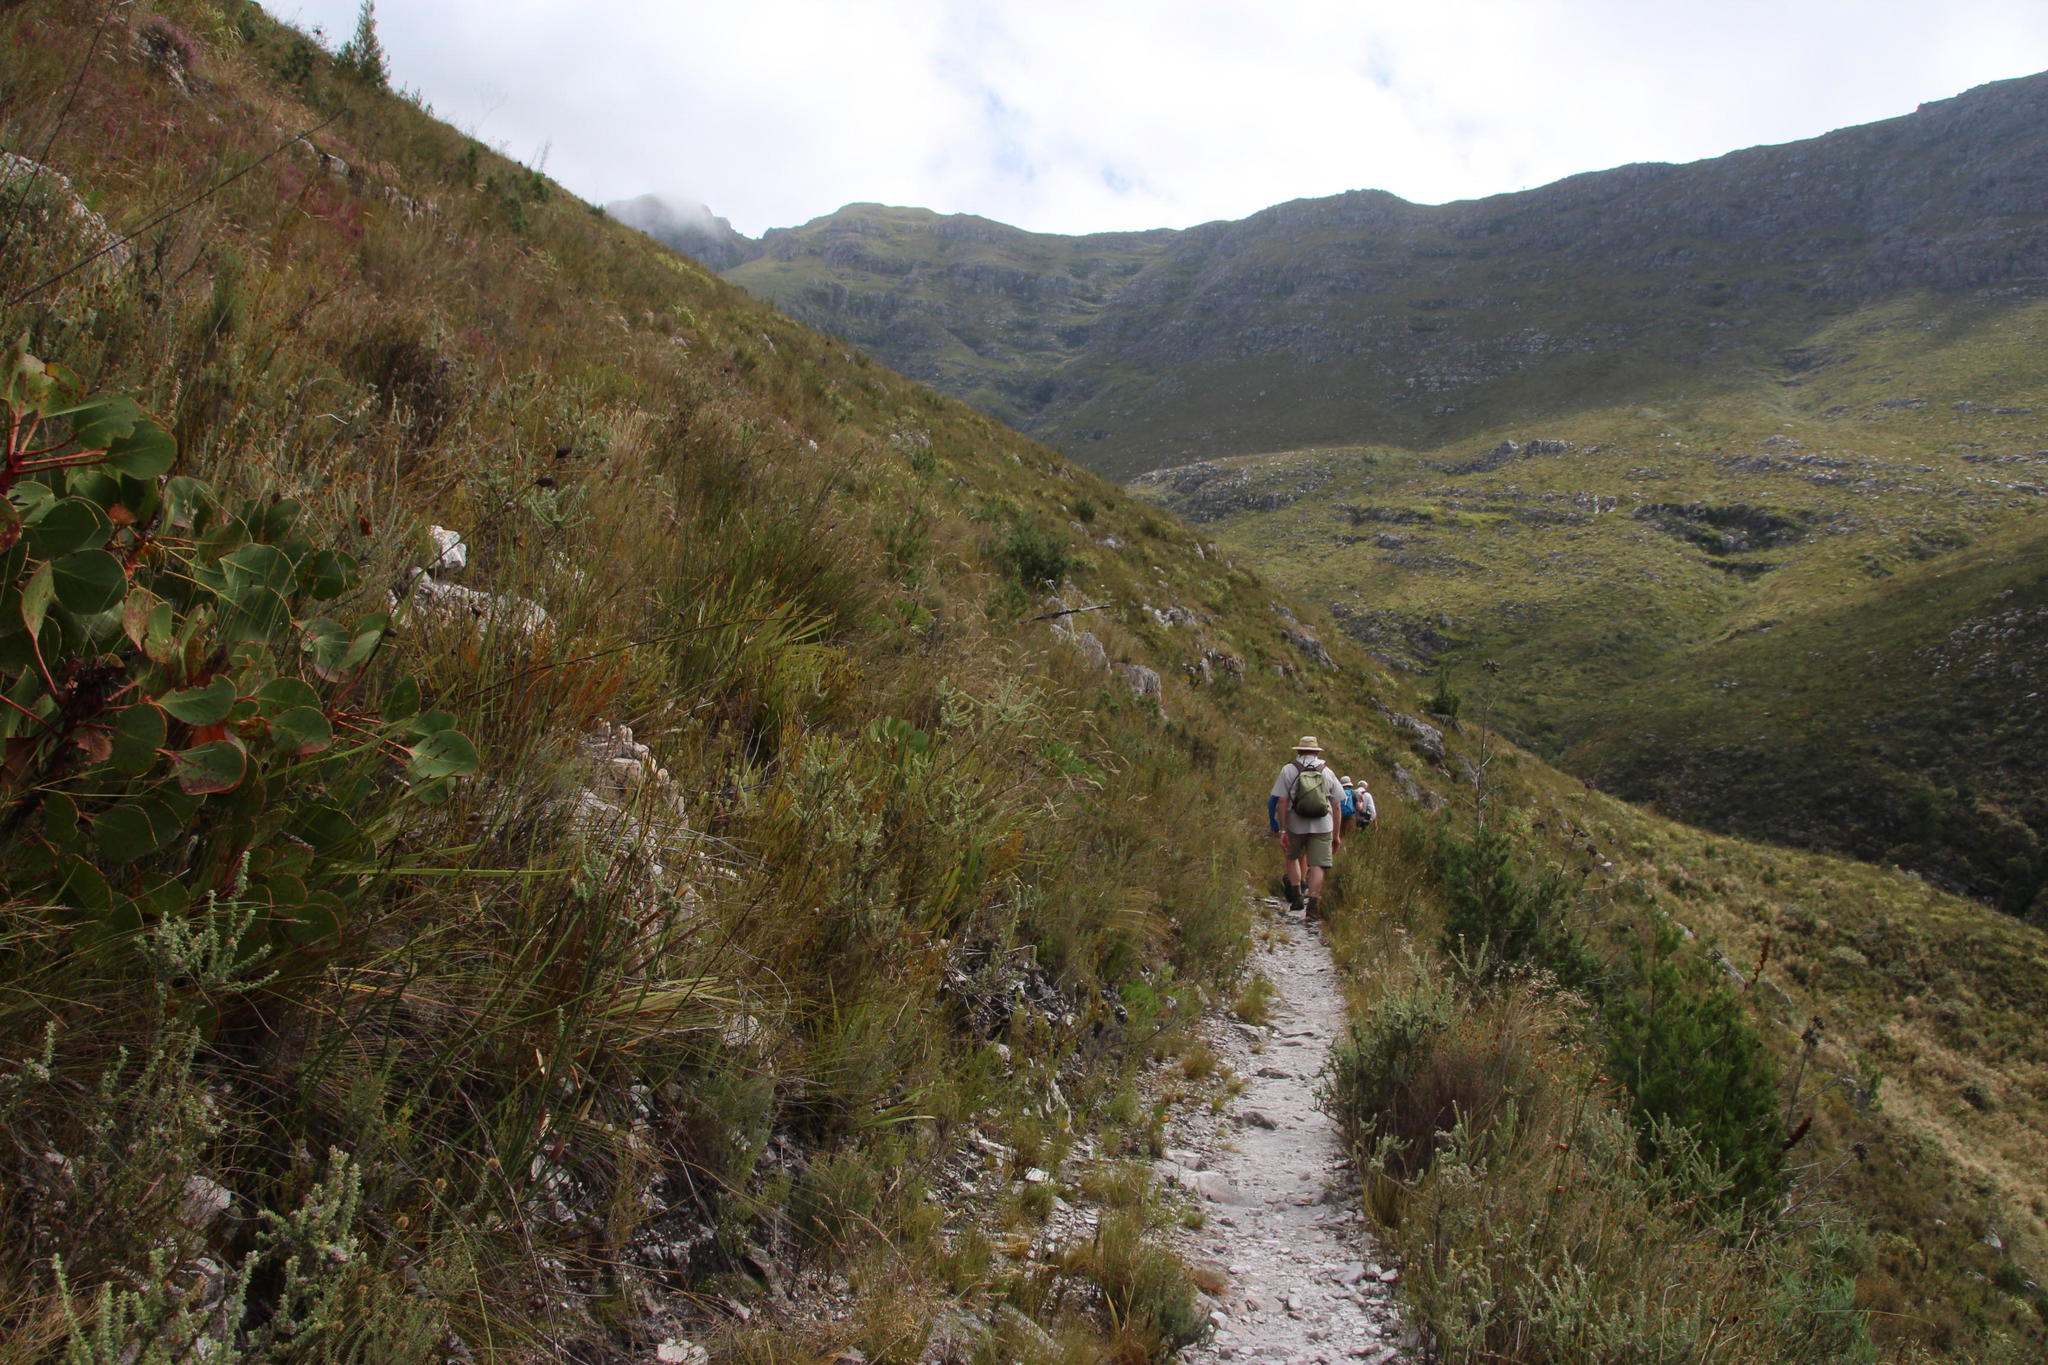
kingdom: Plantae
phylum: Tracheophyta
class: Magnoliopsida
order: Asterales
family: Asteraceae
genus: Seriphium
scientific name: Seriphium incanum
